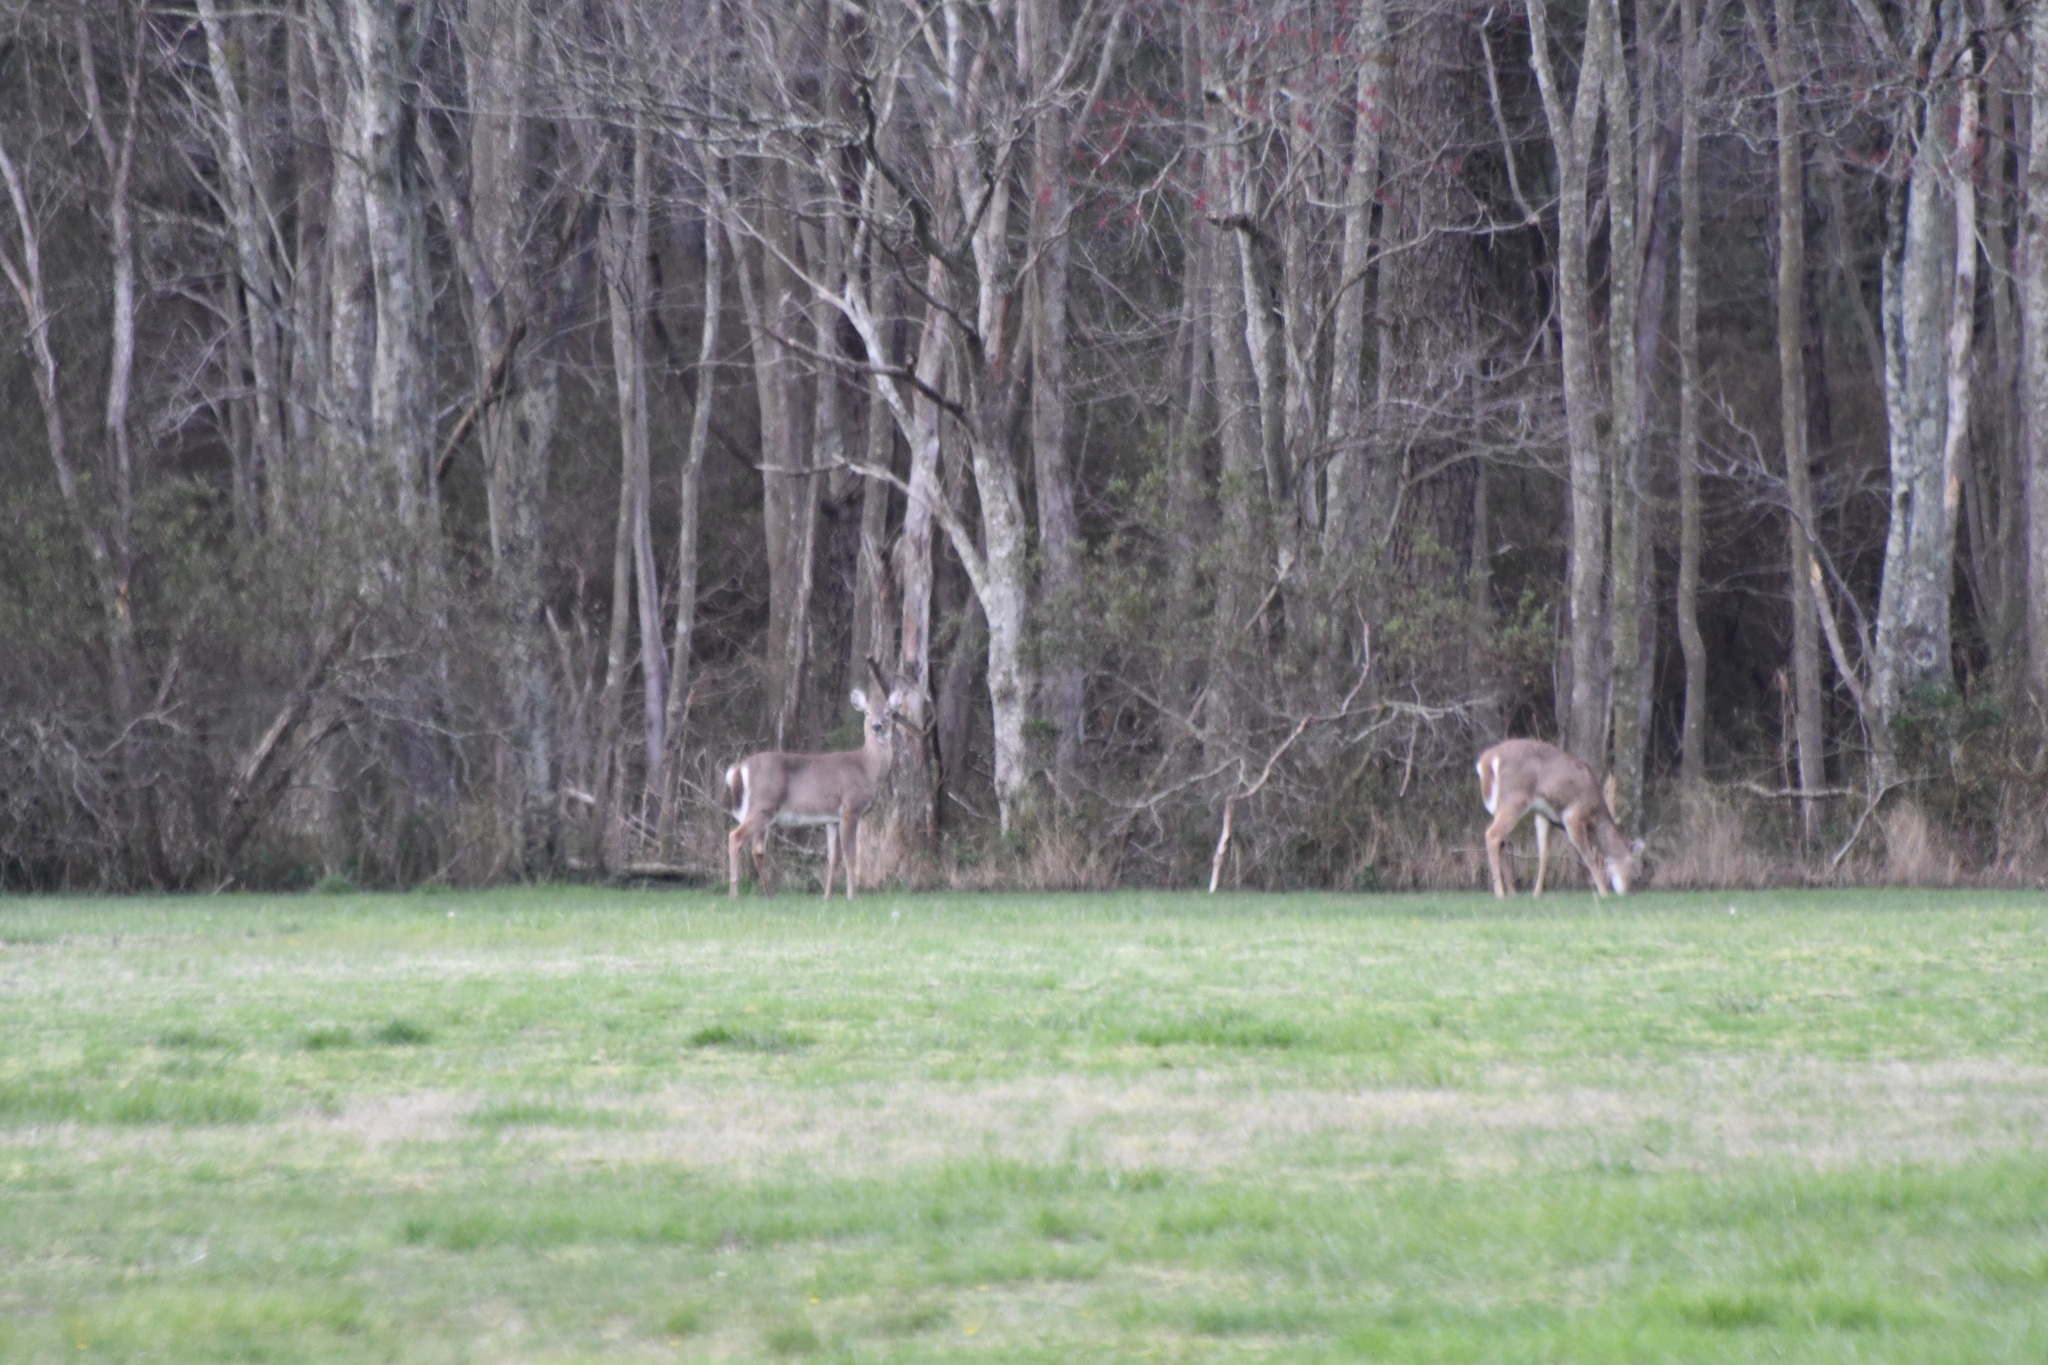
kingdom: Animalia
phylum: Chordata
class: Mammalia
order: Artiodactyla
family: Cervidae
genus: Odocoileus
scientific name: Odocoileus virginianus
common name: White-tailed deer
